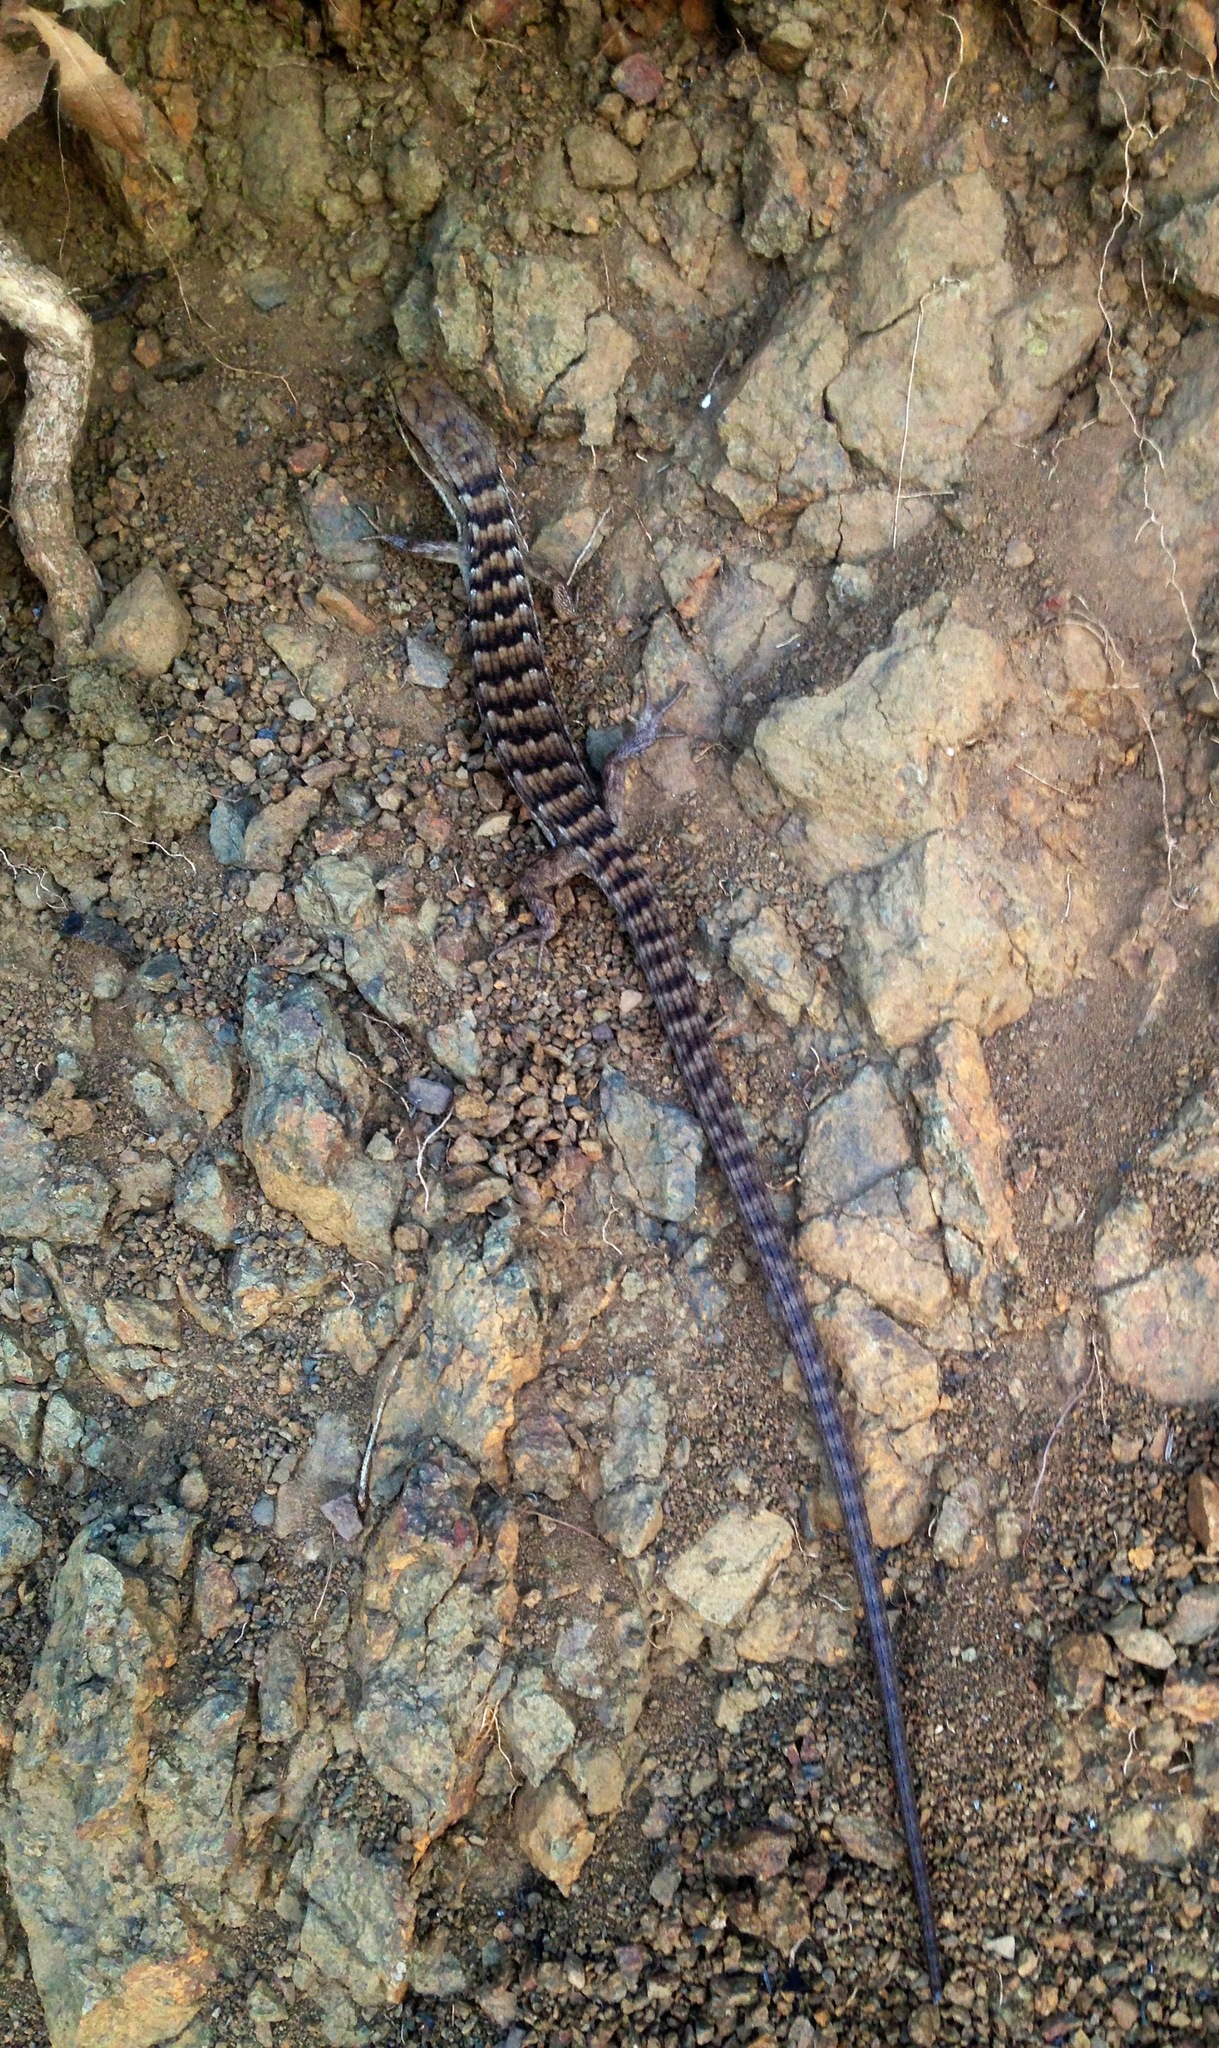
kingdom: Animalia
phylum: Chordata
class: Squamata
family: Anguidae
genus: Elgaria
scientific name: Elgaria multicarinata
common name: Southern alligator lizard
